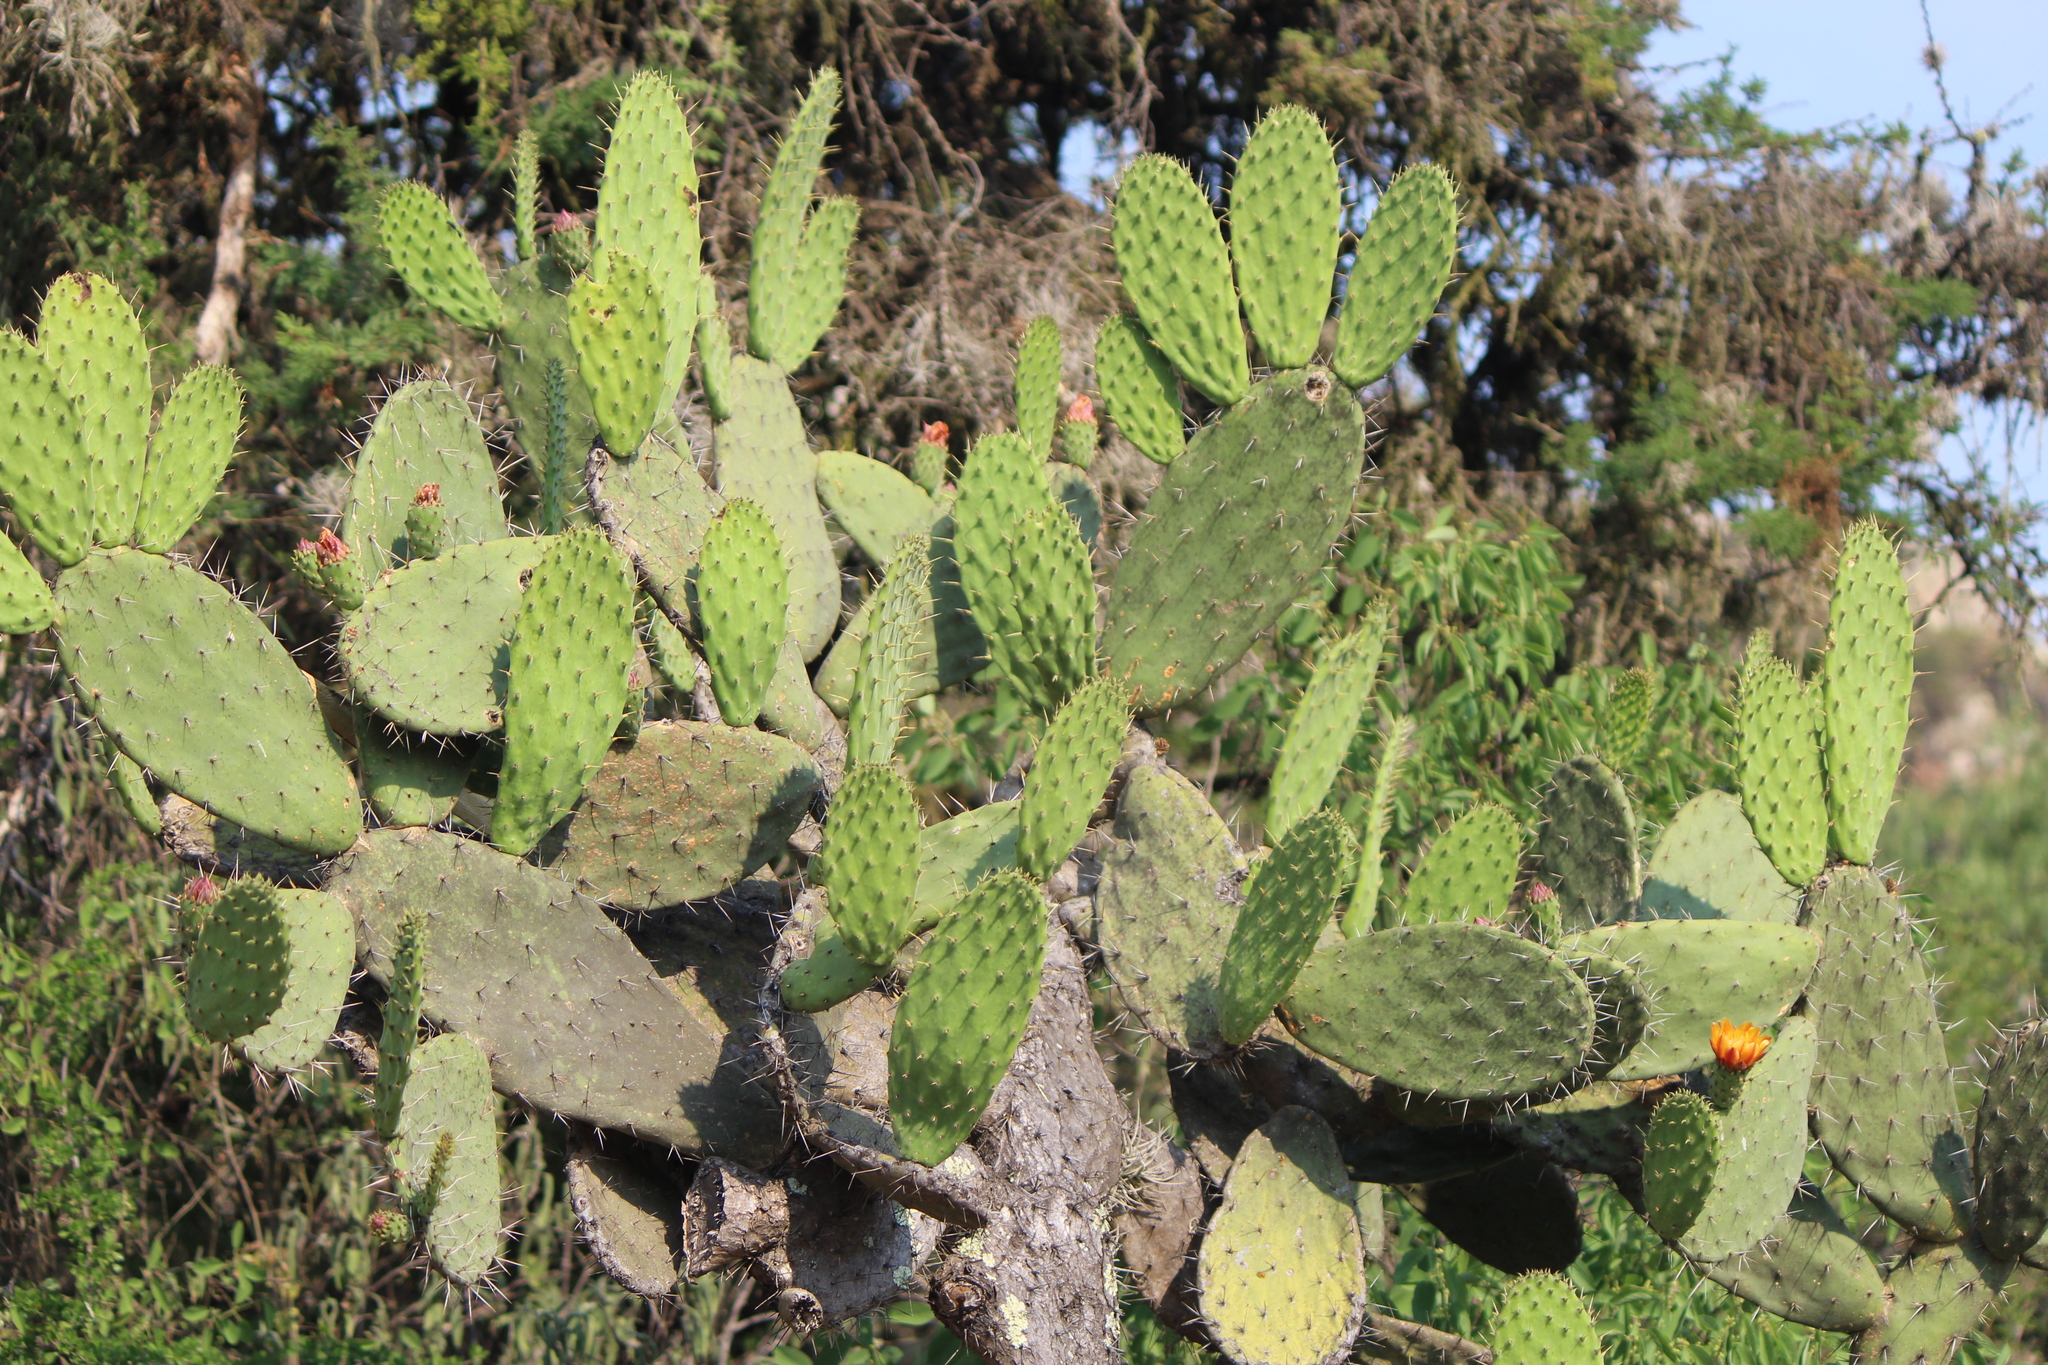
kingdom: Plantae
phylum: Tracheophyta
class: Magnoliopsida
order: Caryophyllales
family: Cactaceae
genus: Opuntia
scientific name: Opuntia tomentosa
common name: Woollyjoint pricklypear
